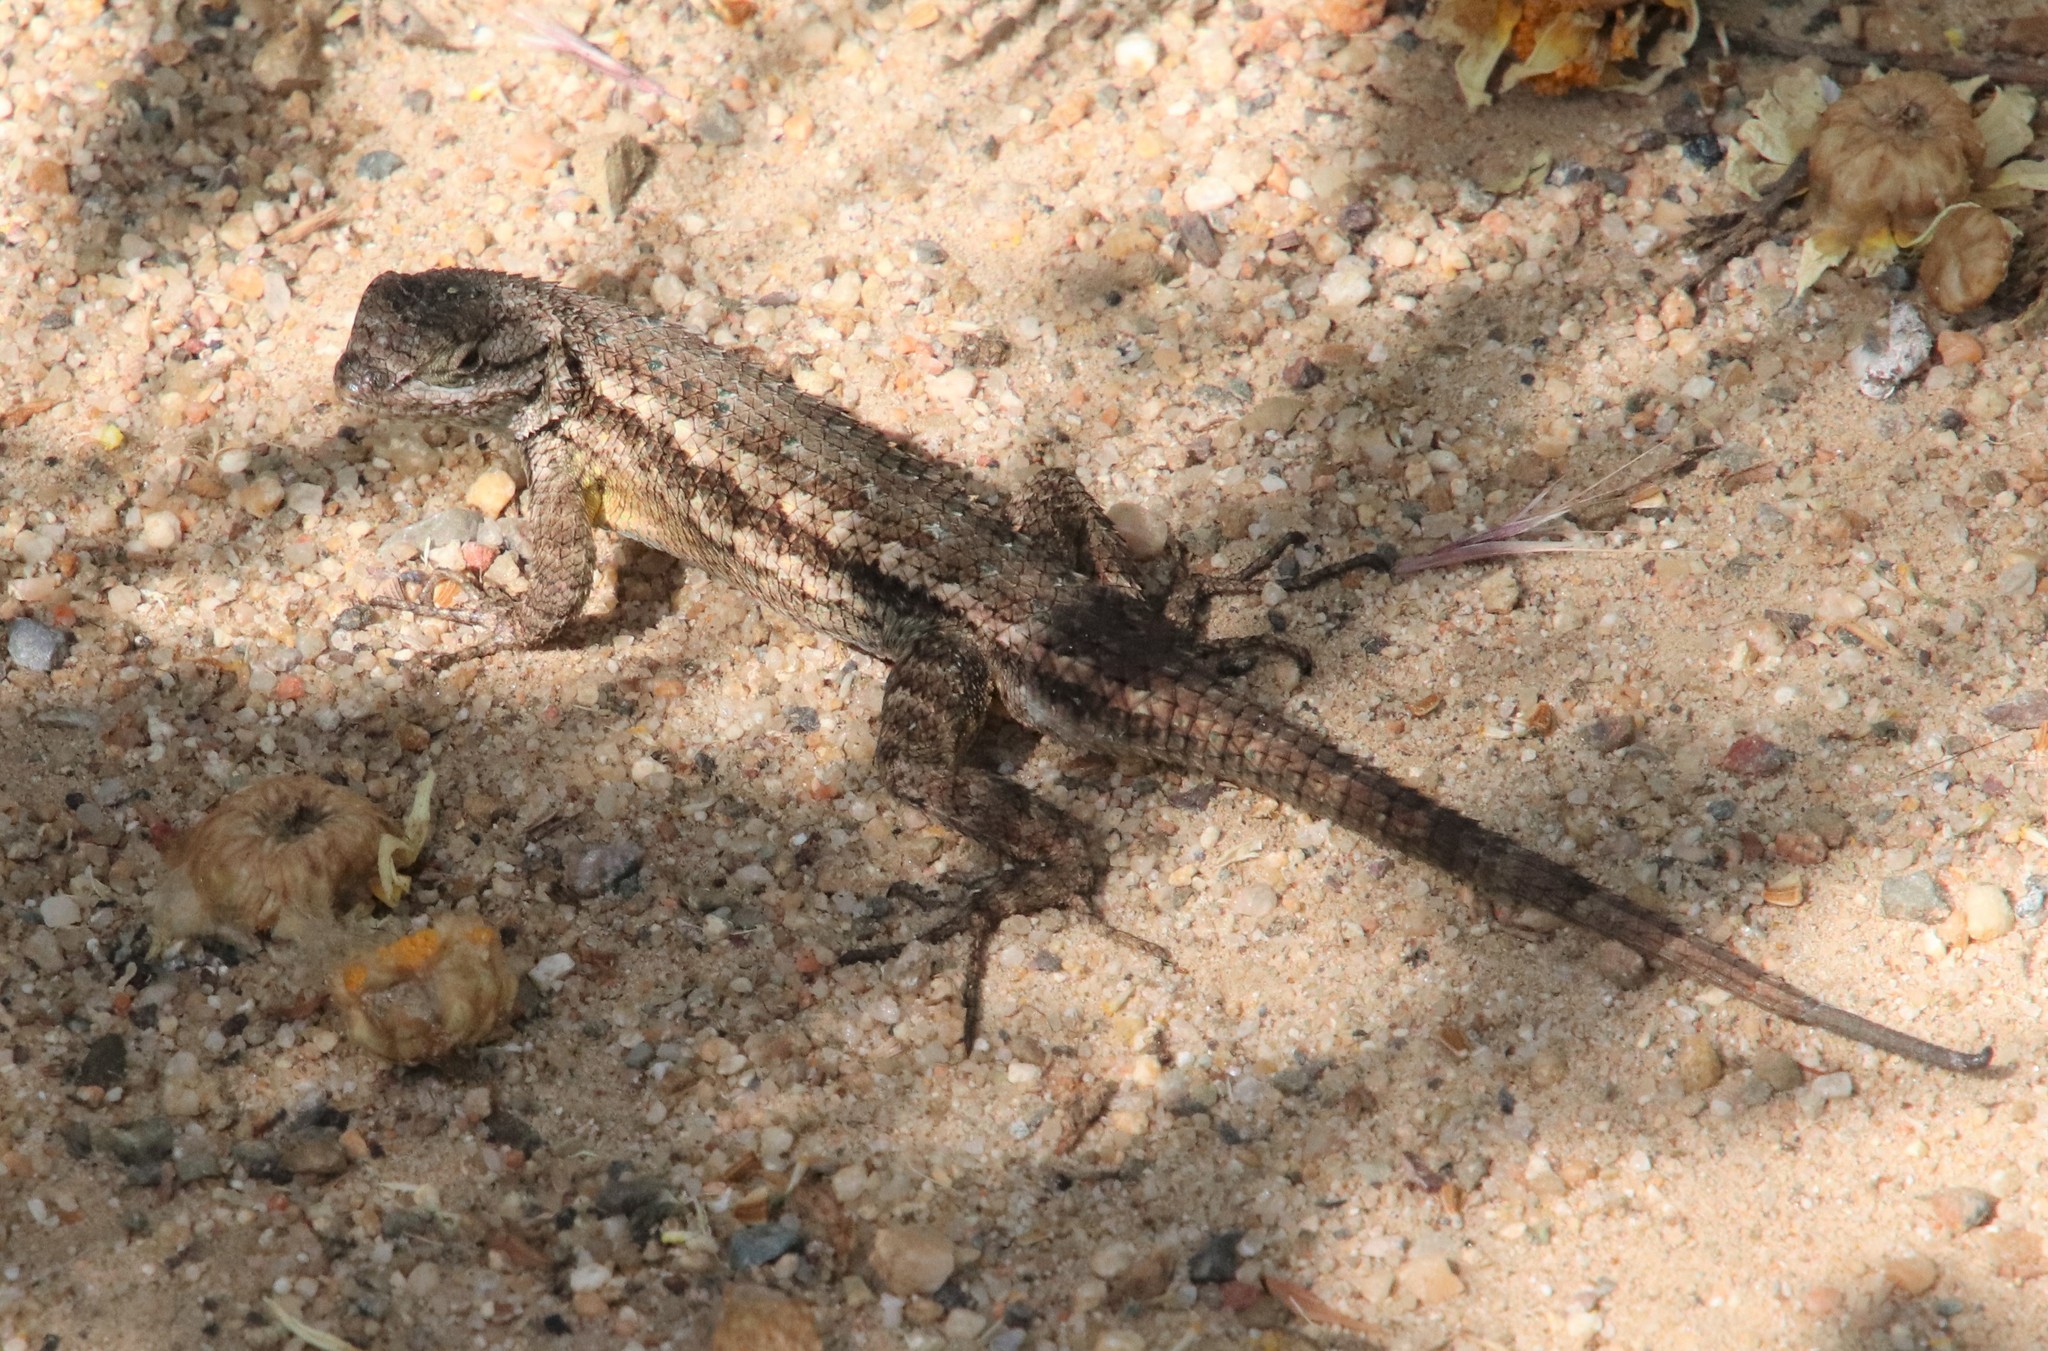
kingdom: Animalia
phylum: Chordata
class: Squamata
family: Phrynosomatidae
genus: Sceloporus
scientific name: Sceloporus occidentalis
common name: Western fence lizard
